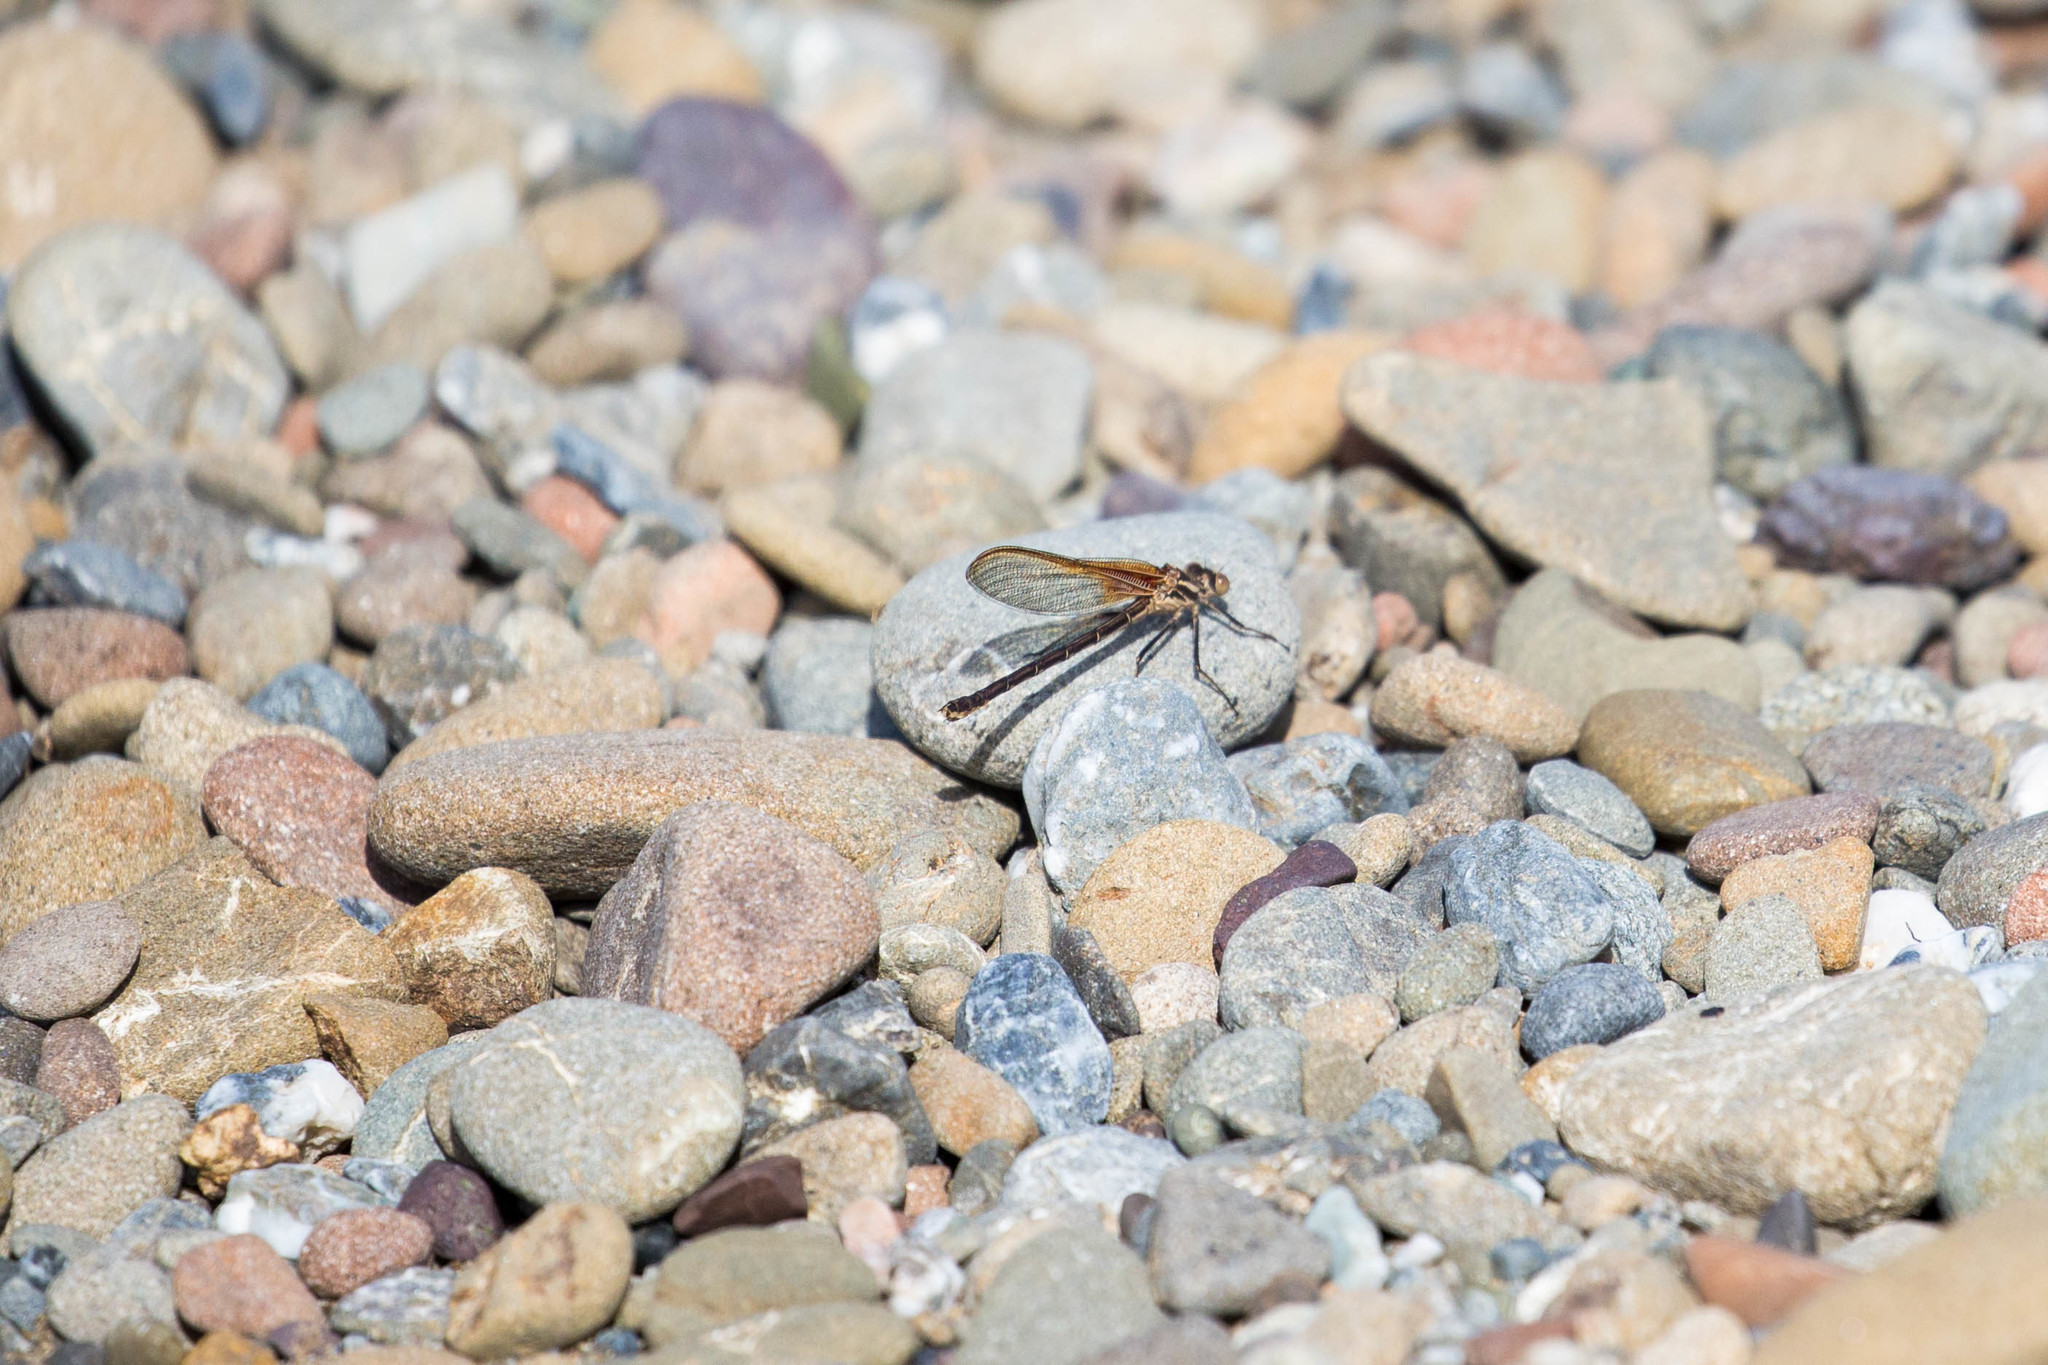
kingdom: Animalia
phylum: Arthropoda
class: Insecta
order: Odonata
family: Calopterygidae
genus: Hetaerina
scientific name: Hetaerina americana
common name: American rubyspot
